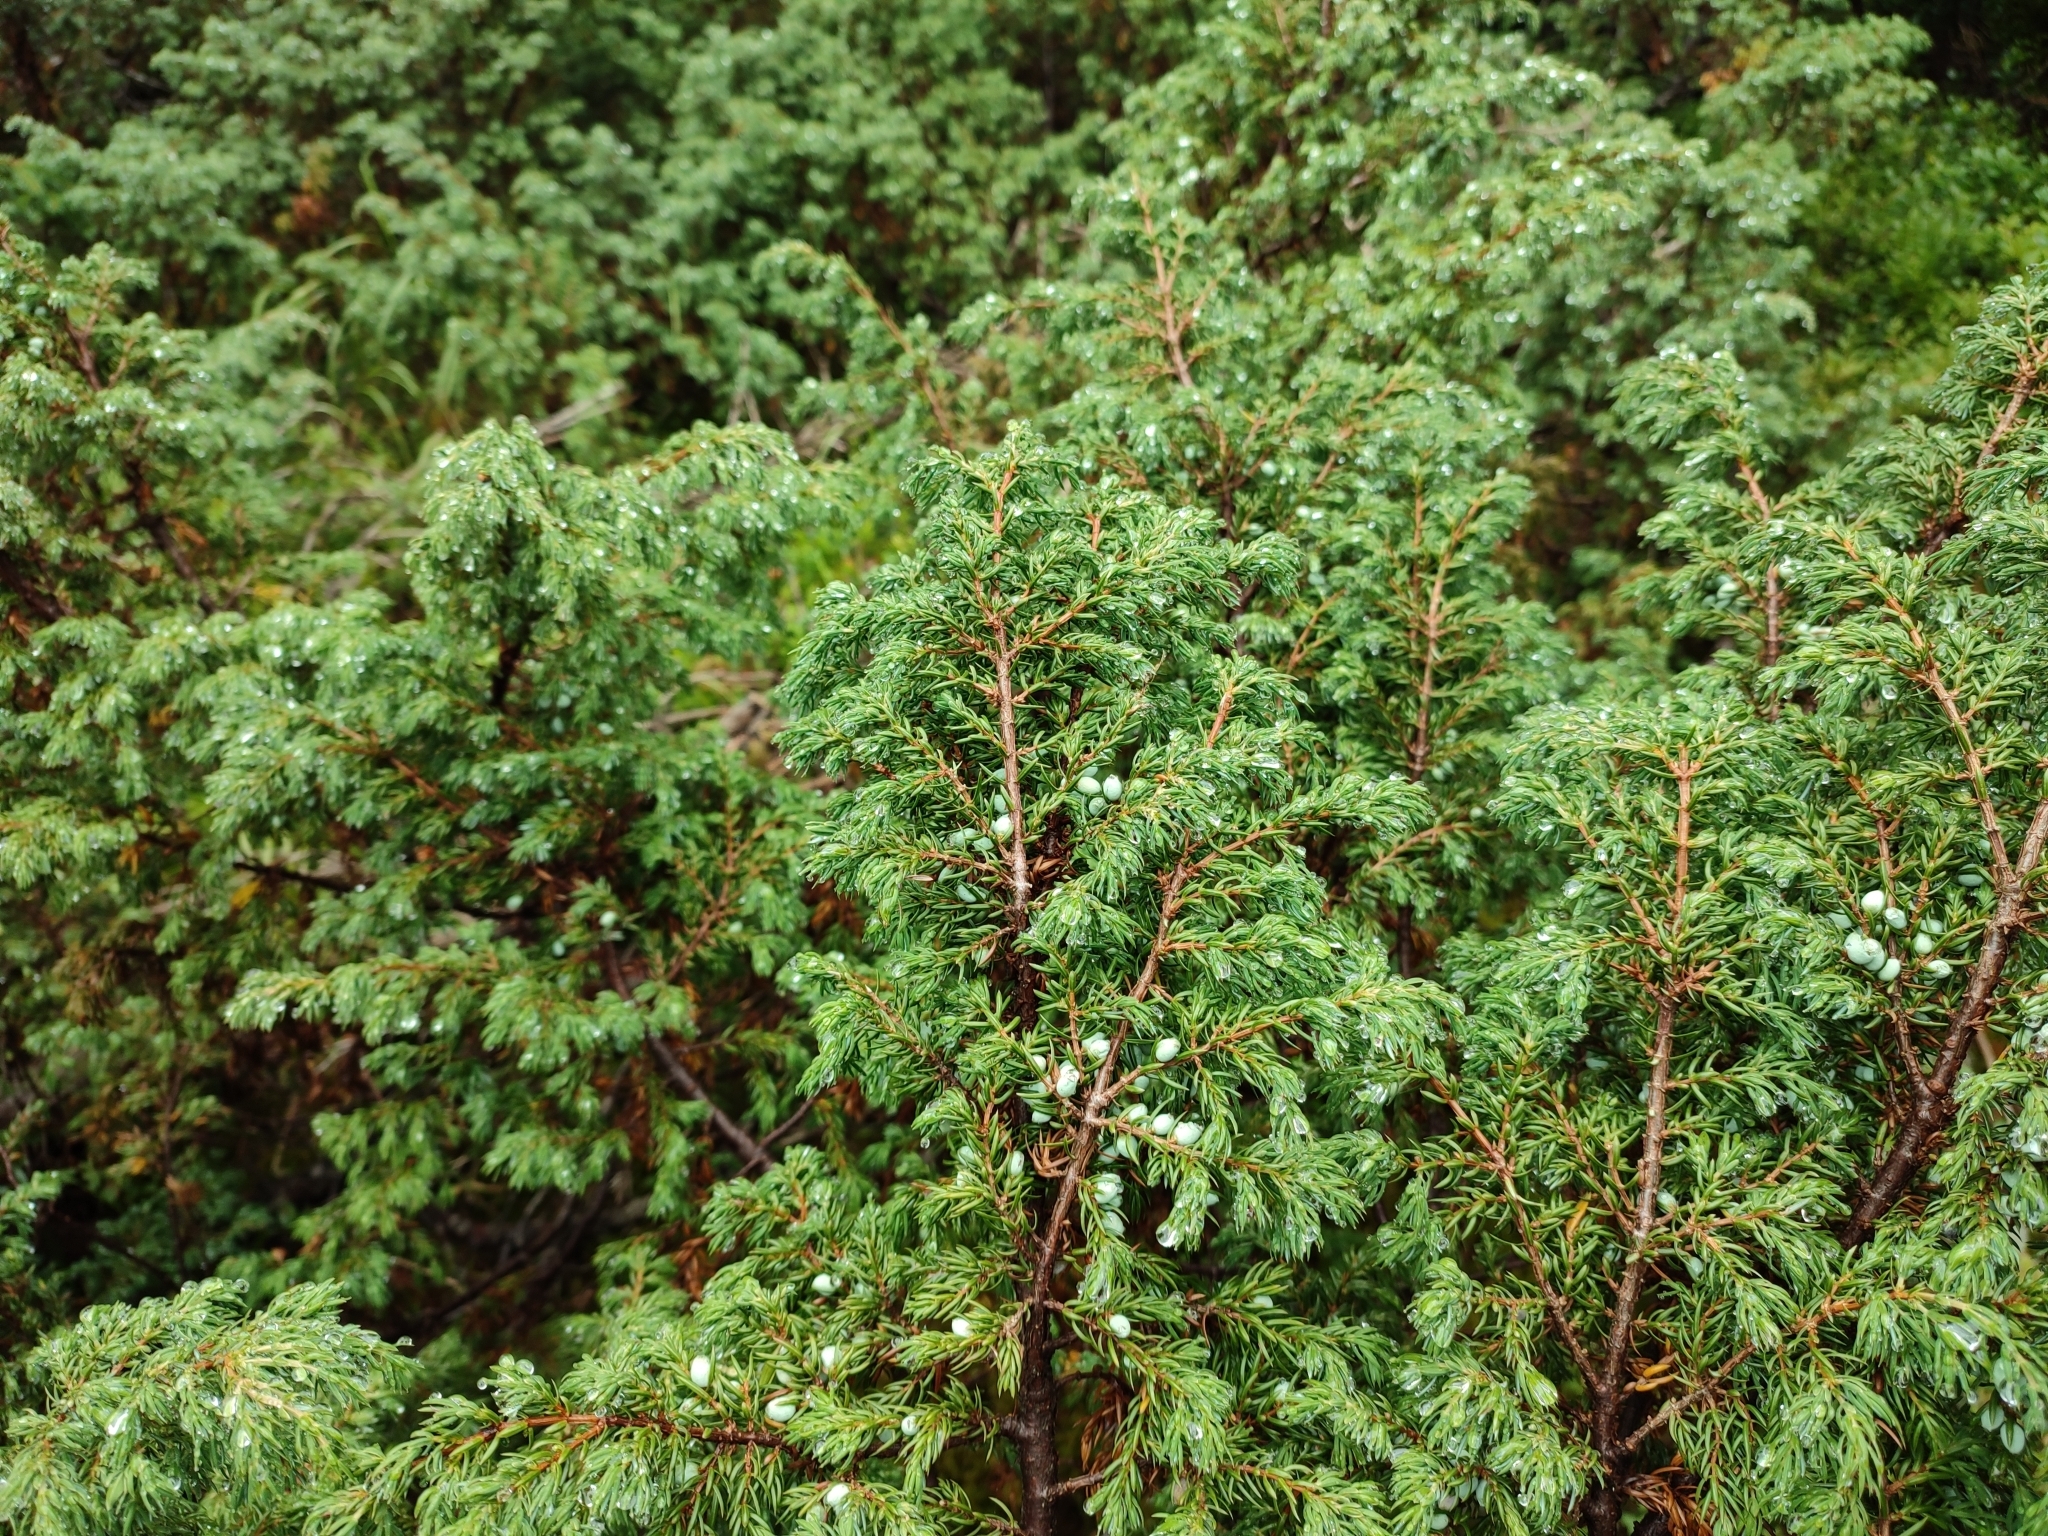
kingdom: Plantae
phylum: Tracheophyta
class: Pinopsida
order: Pinales
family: Cupressaceae
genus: Juniperus
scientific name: Juniperus communis
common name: Common juniper
